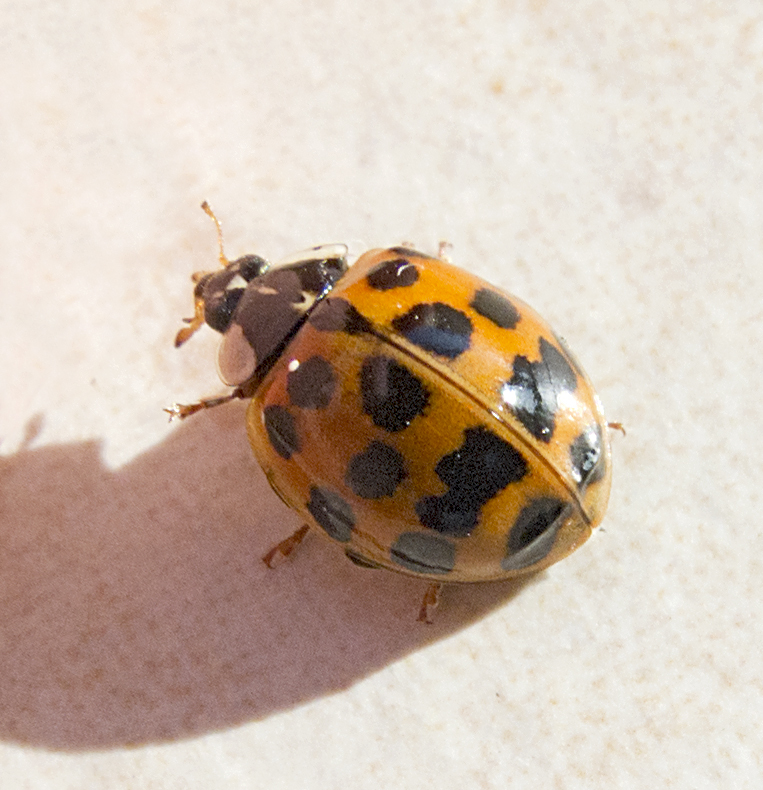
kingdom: Animalia
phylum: Arthropoda
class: Insecta
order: Coleoptera
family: Coccinellidae
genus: Harmonia
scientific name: Harmonia axyridis
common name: Harlequin ladybird
